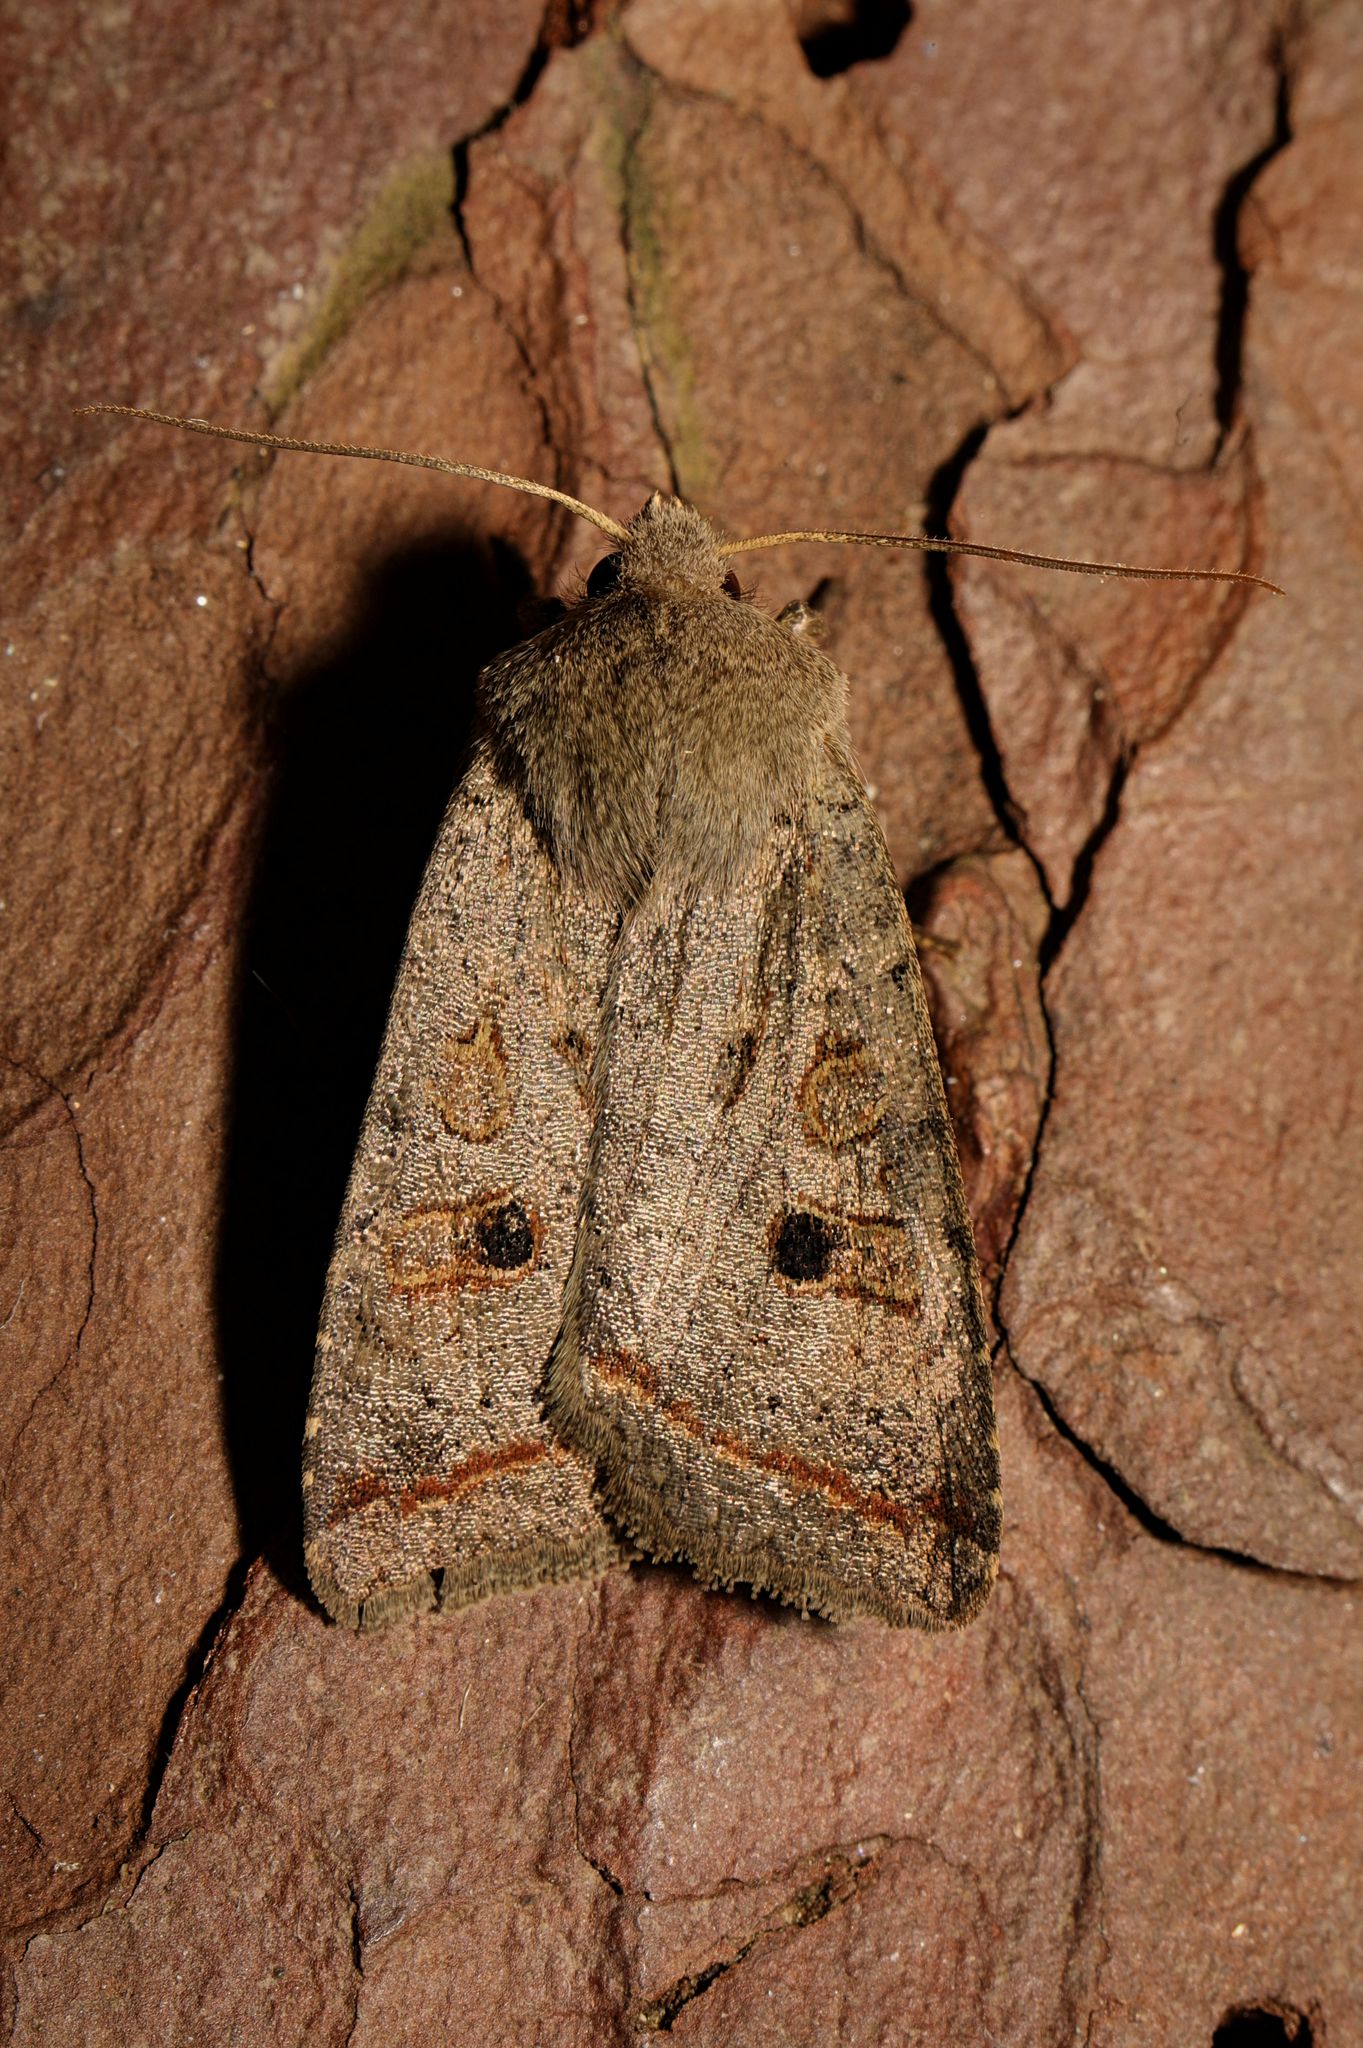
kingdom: Animalia
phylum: Arthropoda
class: Insecta
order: Lepidoptera
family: Noctuidae
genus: Agrochola
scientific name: Agrochola lota
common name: Red-line quaker
